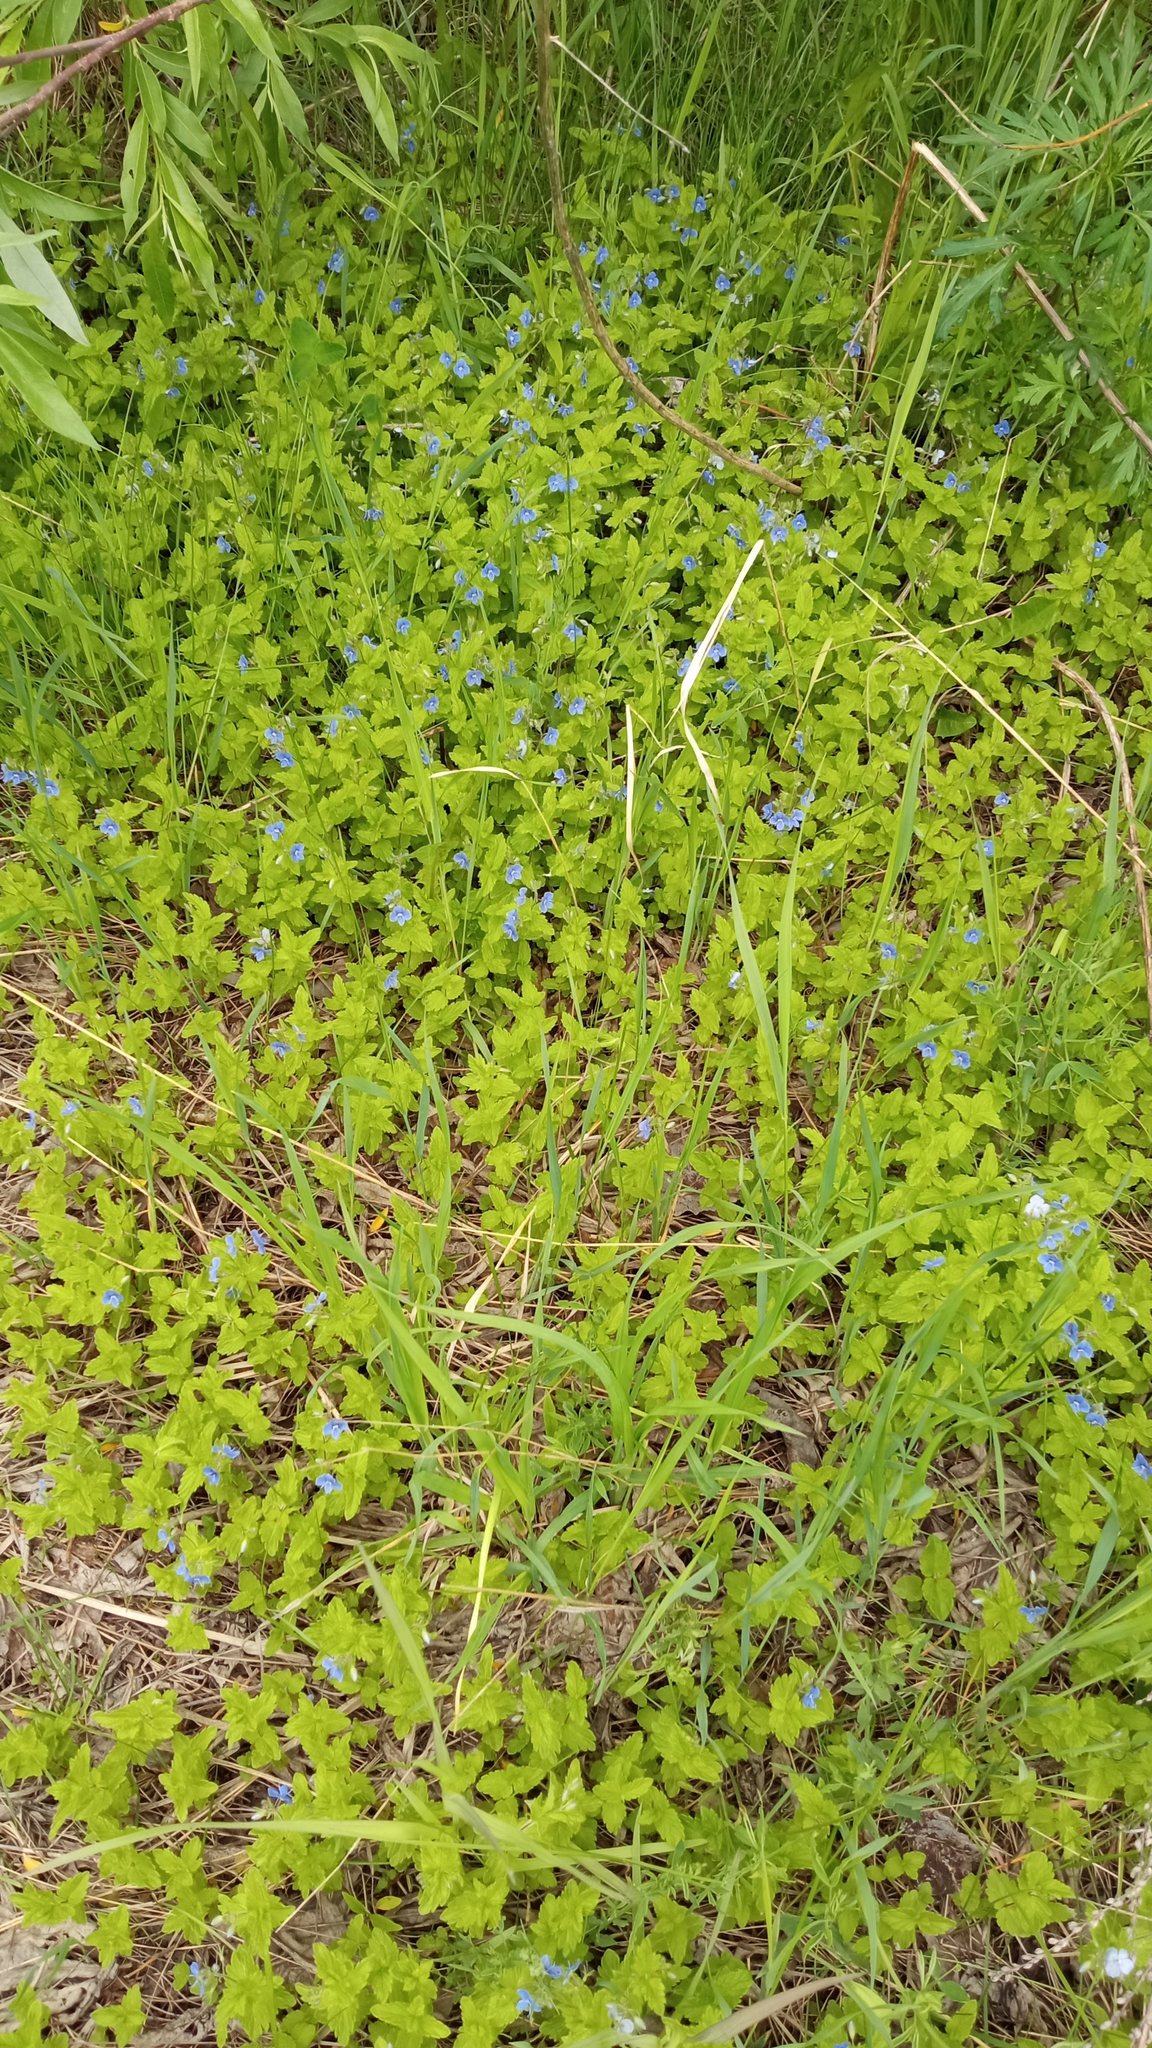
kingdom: Plantae
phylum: Tracheophyta
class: Magnoliopsida
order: Lamiales
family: Plantaginaceae
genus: Veronica
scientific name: Veronica chamaedrys
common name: Germander speedwell
